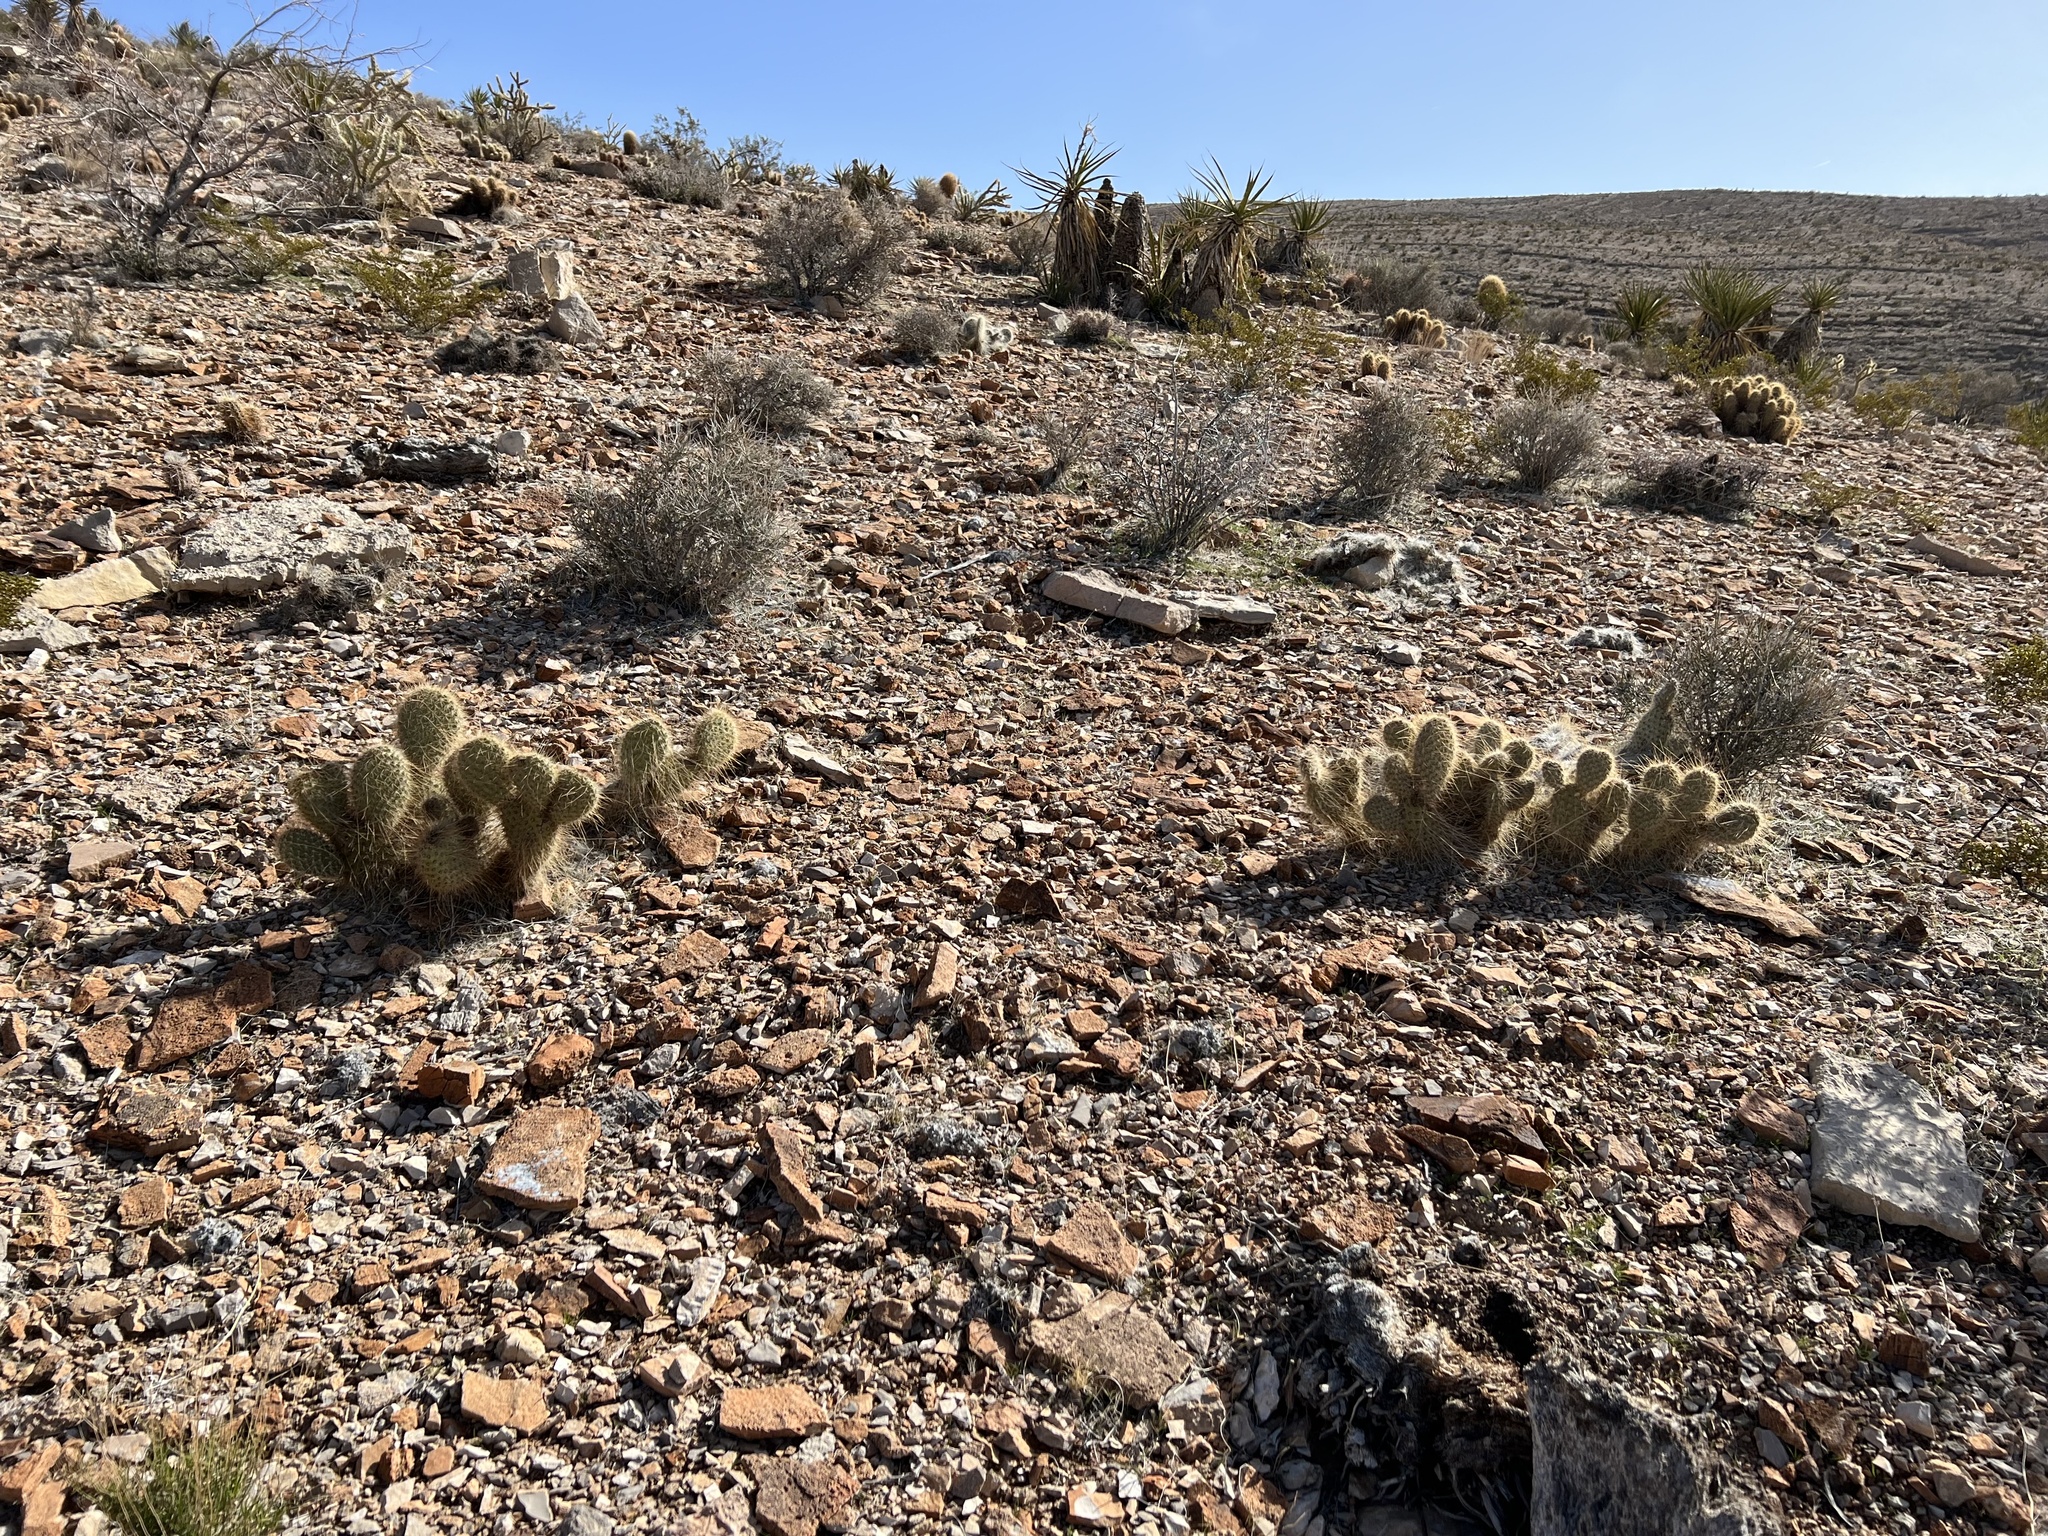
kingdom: Plantae
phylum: Tracheophyta
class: Magnoliopsida
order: Caryophyllales
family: Cactaceae
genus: Opuntia
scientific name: Opuntia polyacantha
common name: Plains prickly-pear
